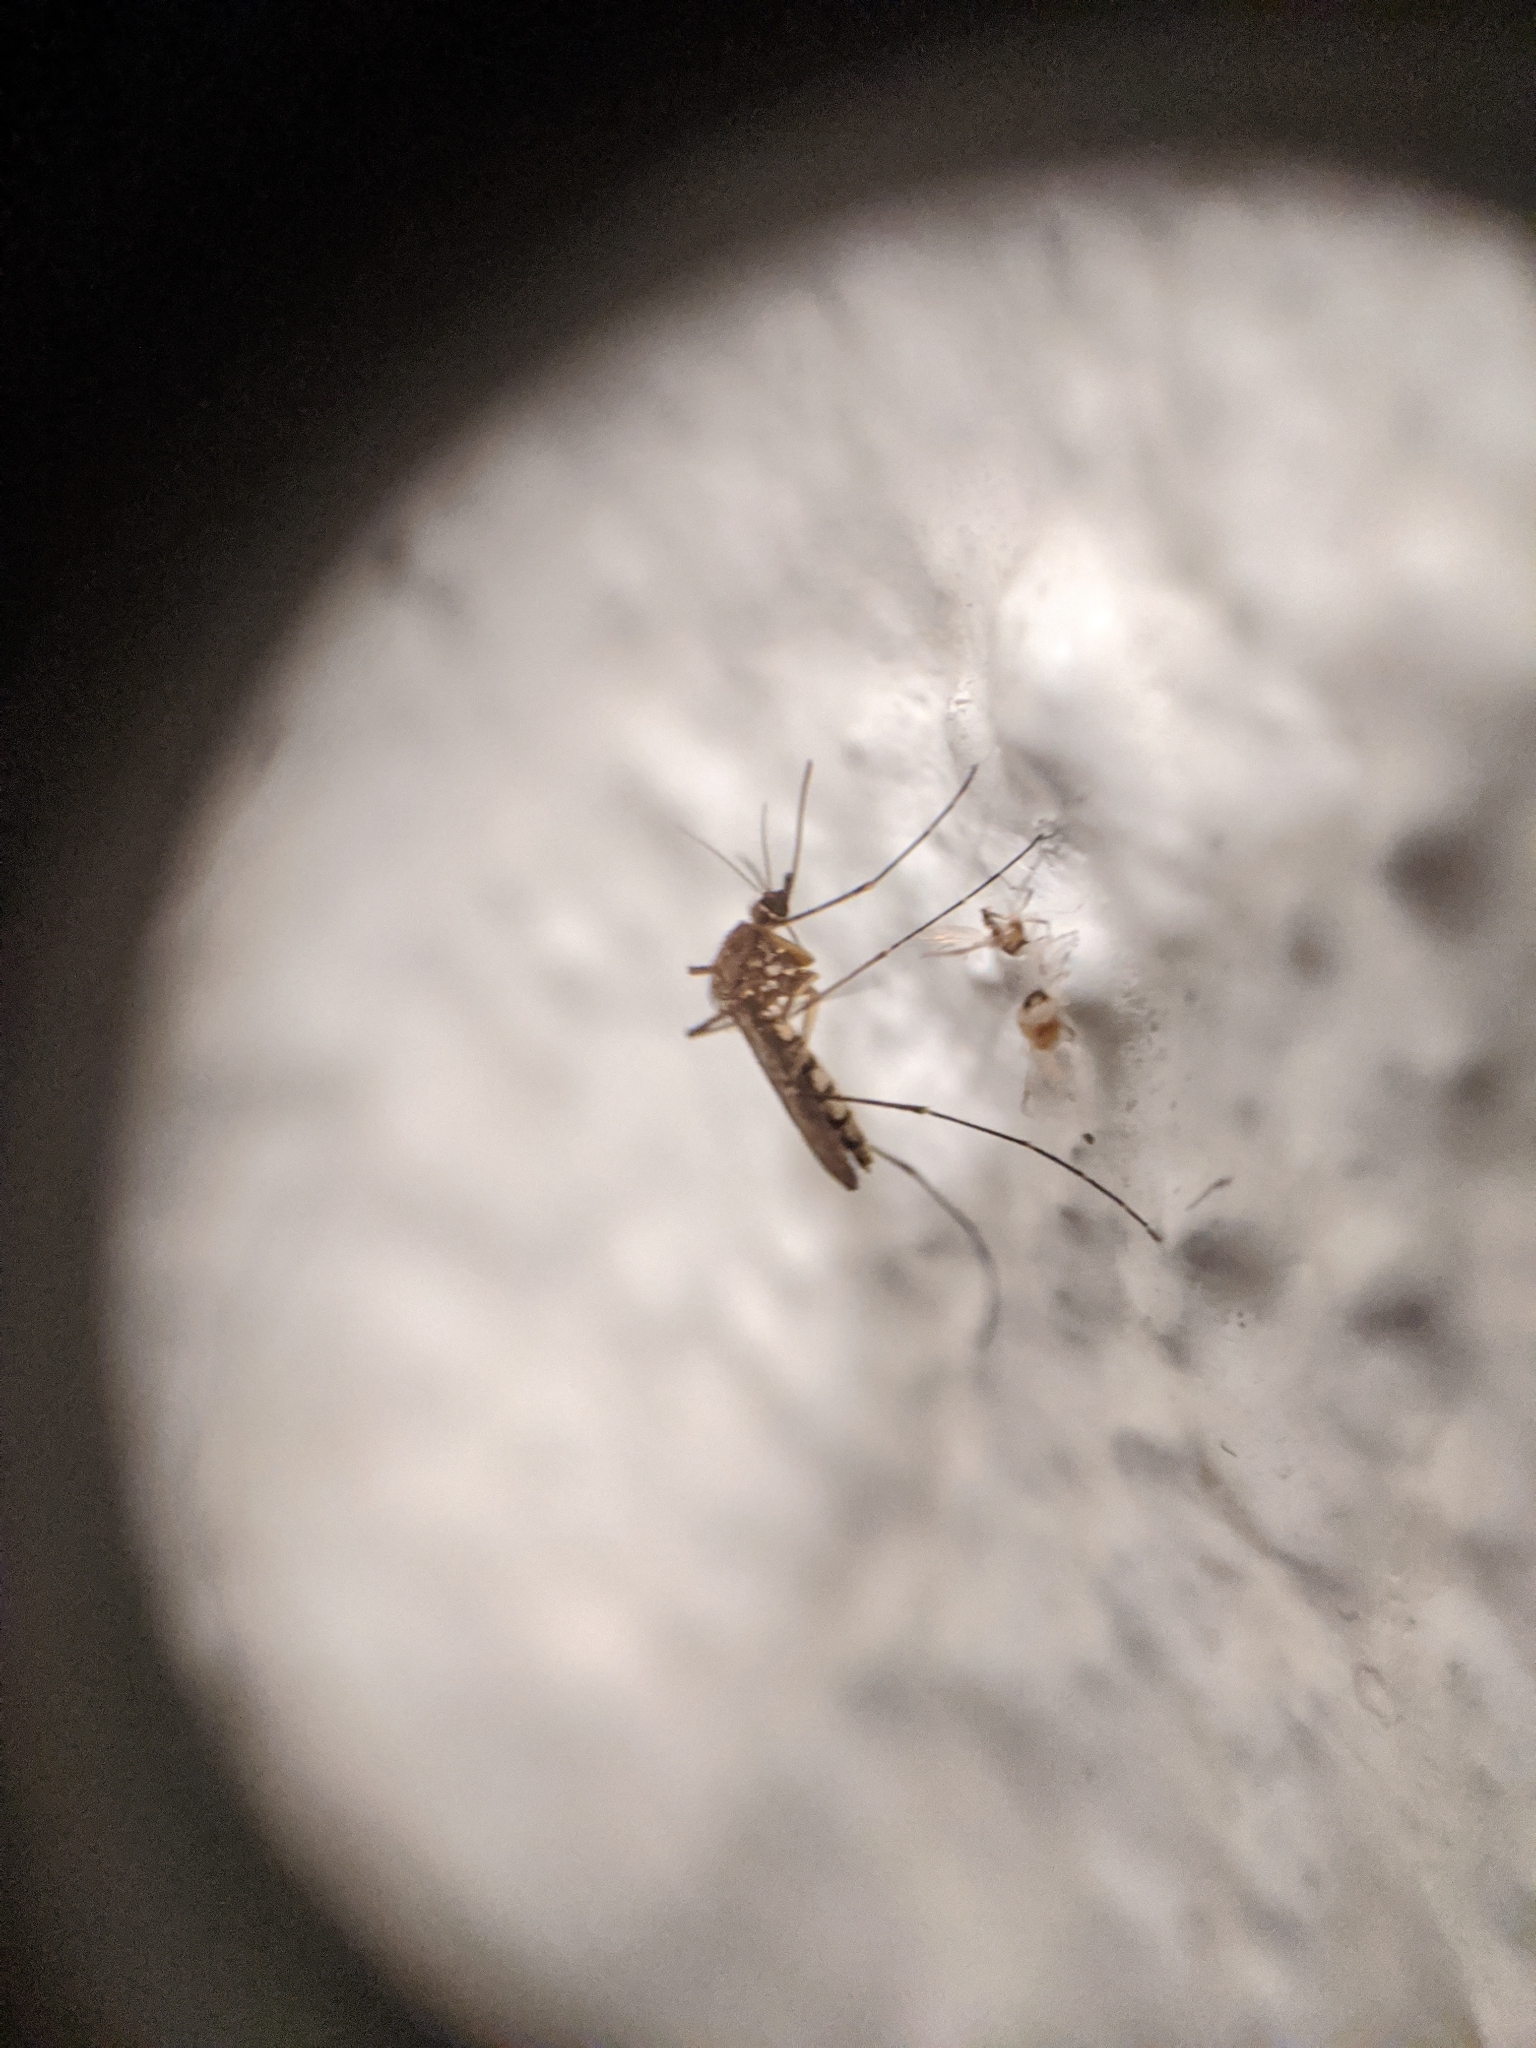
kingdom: Animalia
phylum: Arthropoda
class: Insecta
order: Diptera
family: Culicidae
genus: Aedes
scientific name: Aedes vexans
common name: Inland floodwater mosquito
